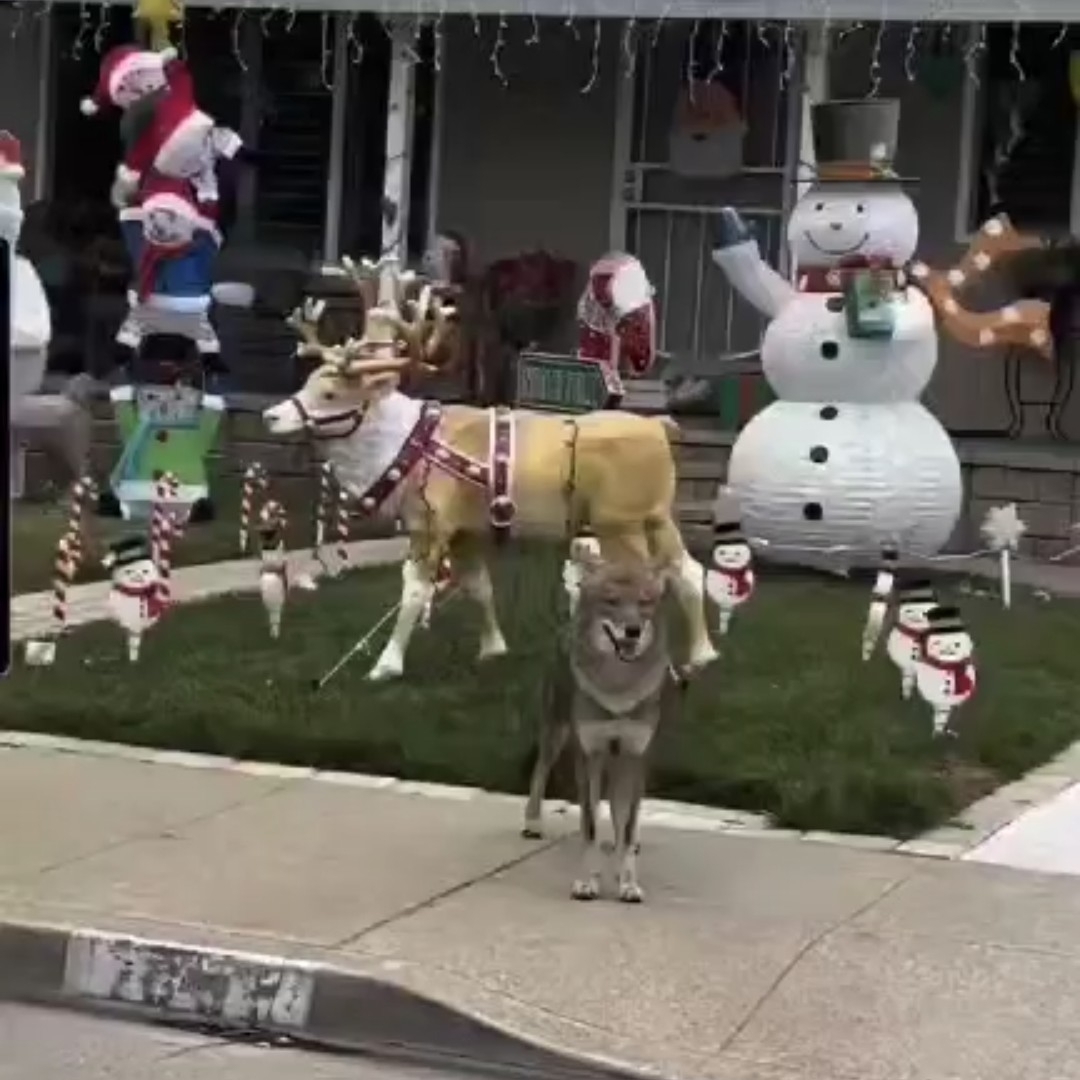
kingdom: Animalia
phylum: Chordata
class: Mammalia
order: Carnivora
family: Canidae
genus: Canis
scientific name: Canis latrans
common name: Coyote
